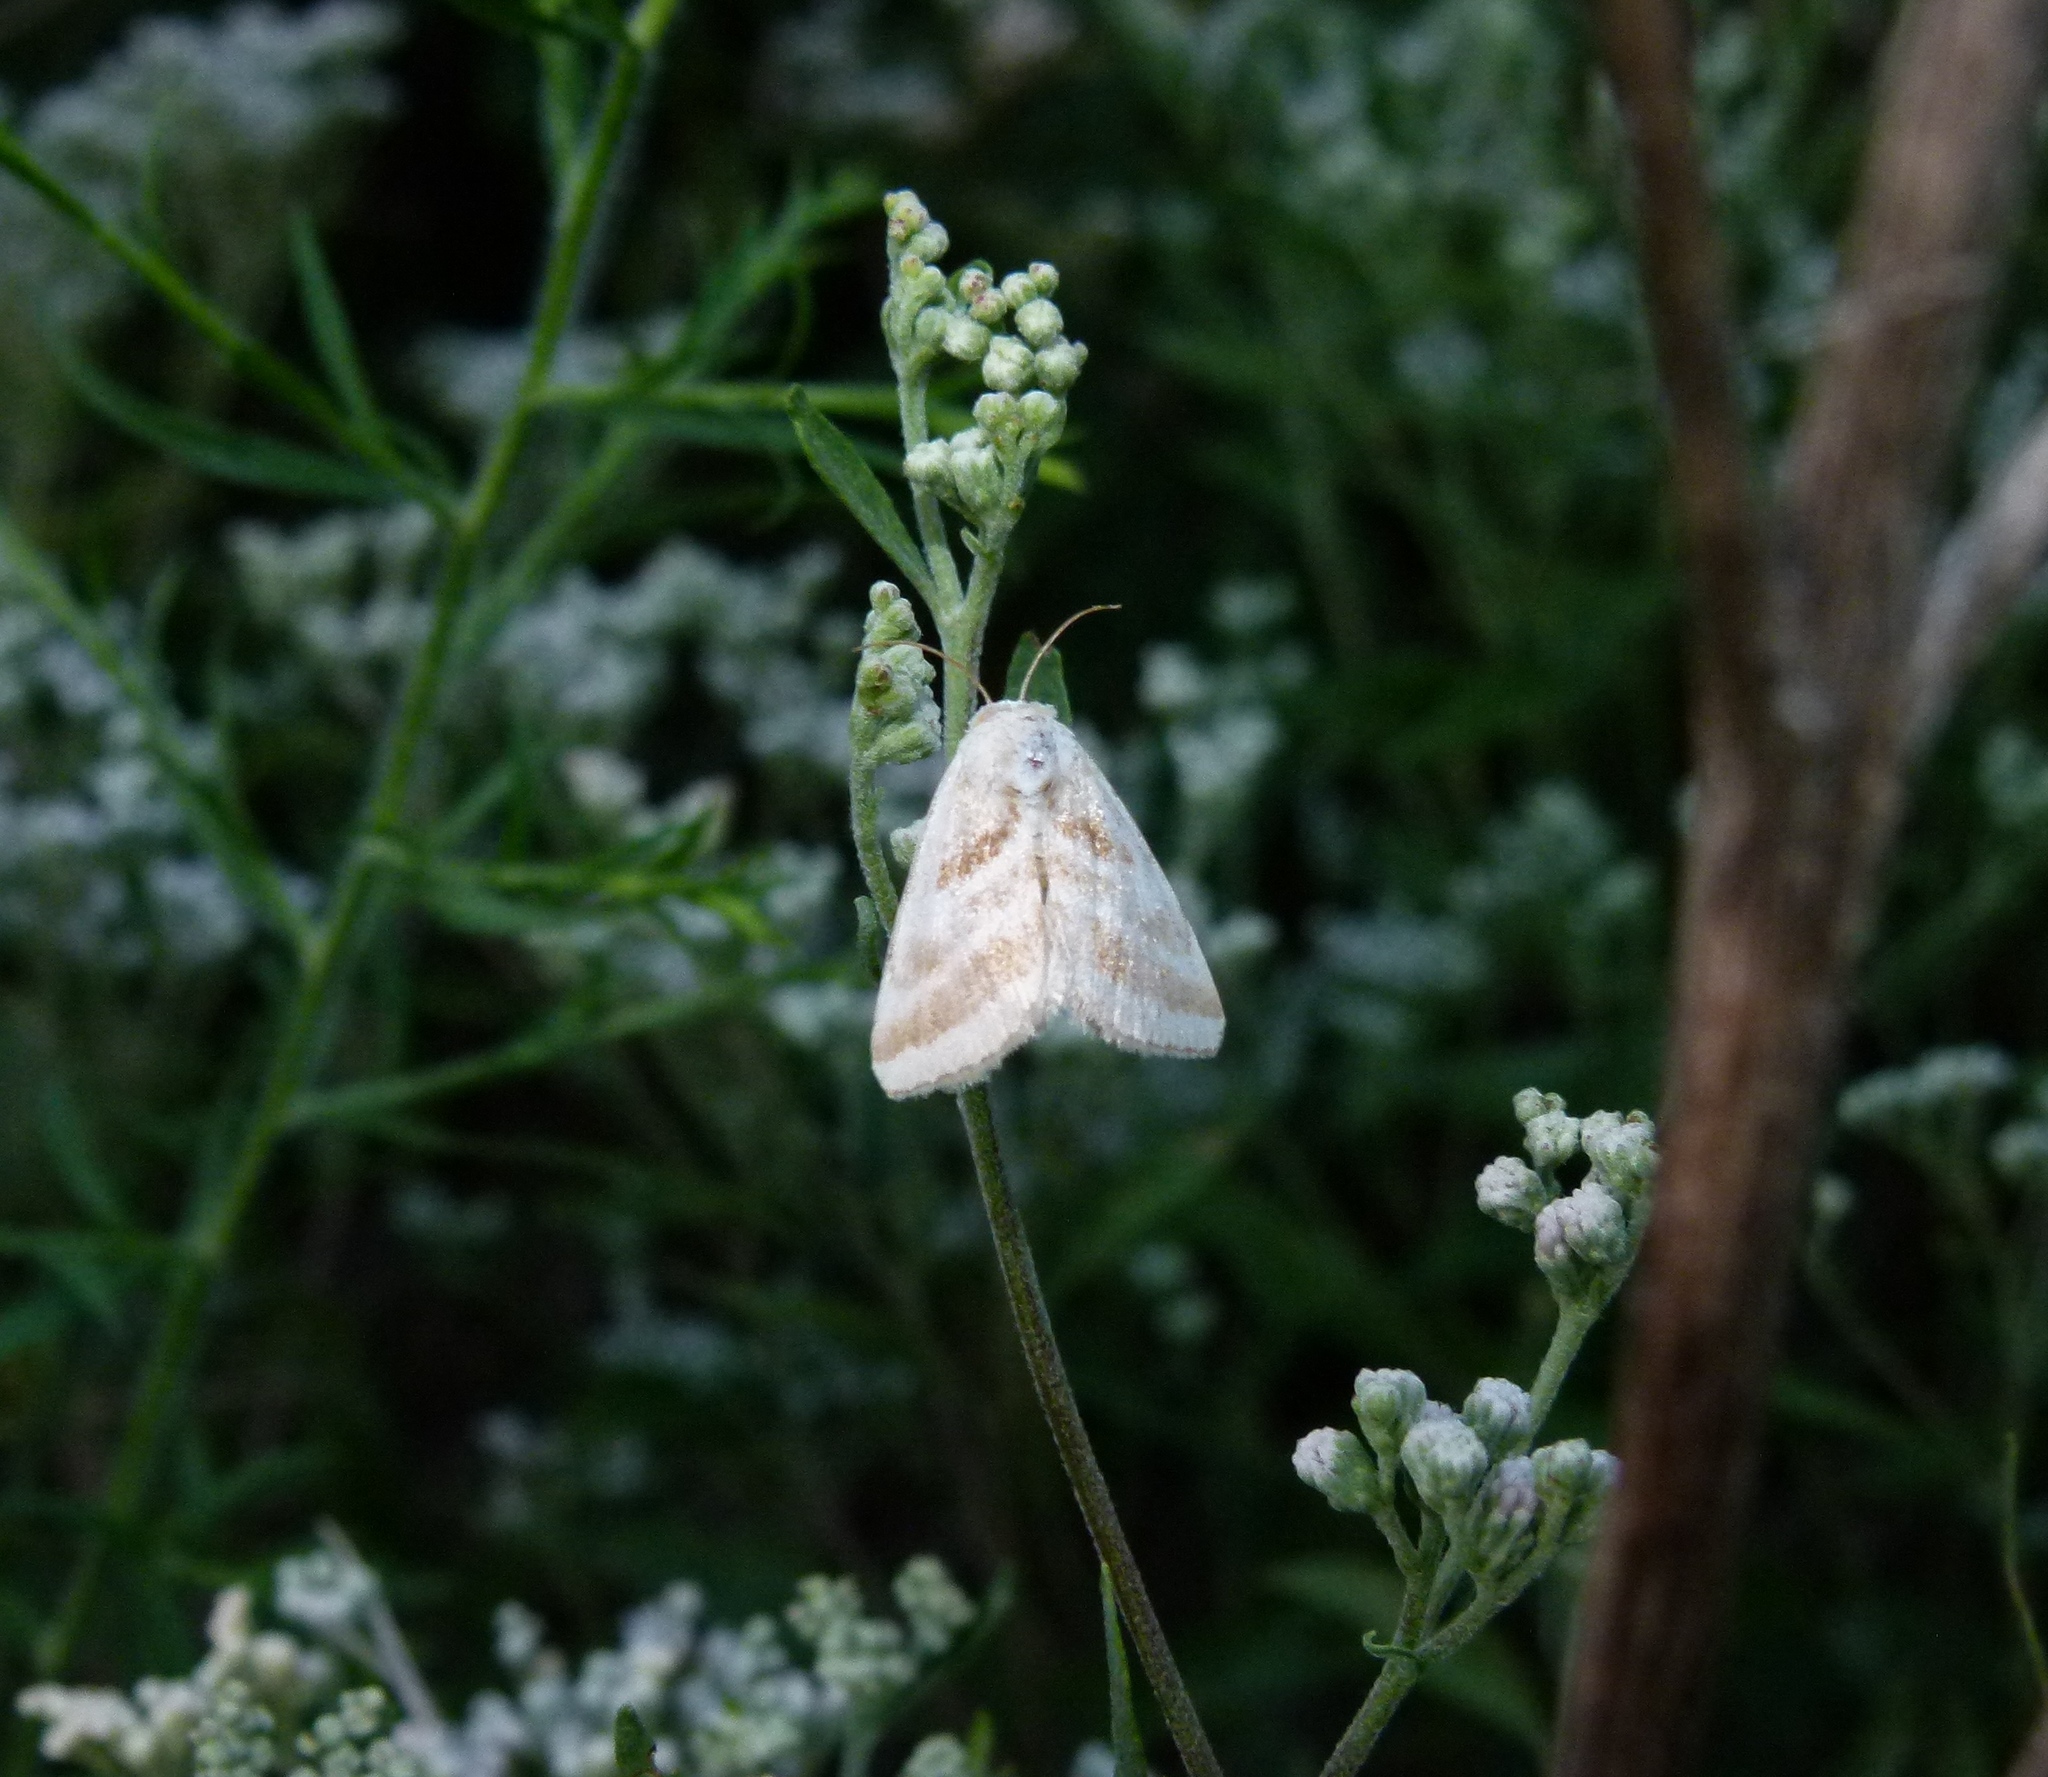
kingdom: Animalia
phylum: Arthropoda
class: Insecta
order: Lepidoptera
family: Noctuidae
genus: Schinia
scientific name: Schinia trifascia
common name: Three-lined flower moth
